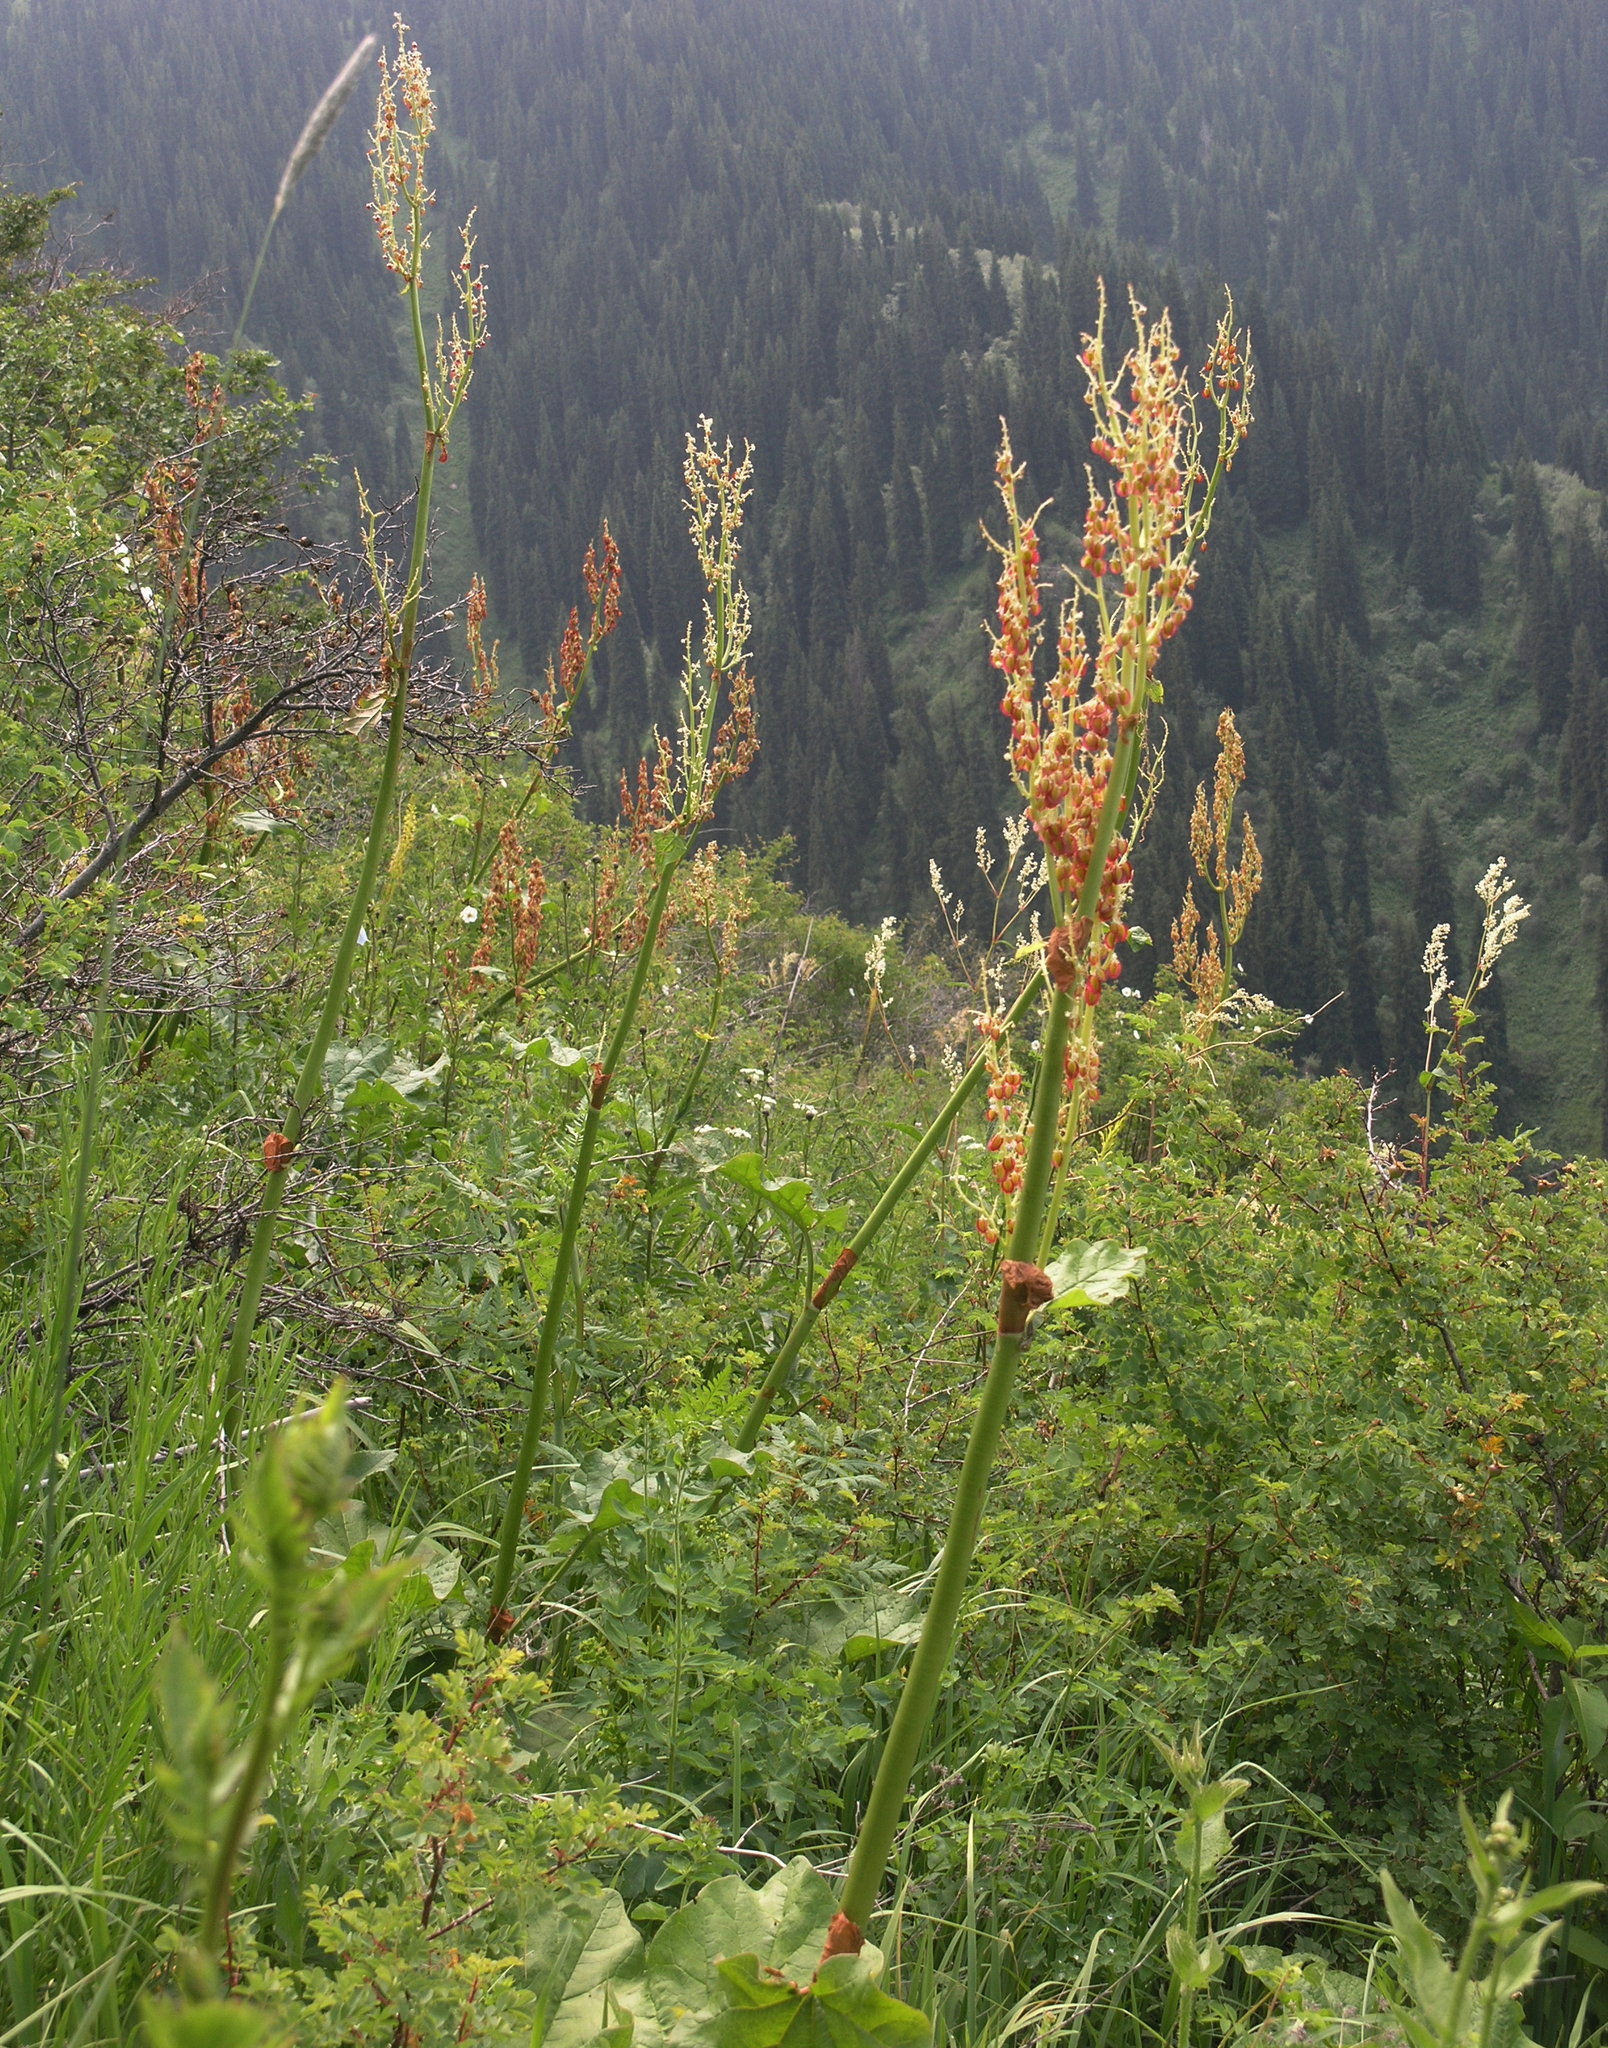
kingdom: Plantae
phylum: Tracheophyta
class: Magnoliopsida
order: Caryophyllales
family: Polygonaceae
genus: Rheum
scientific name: Rheum wittrockii
